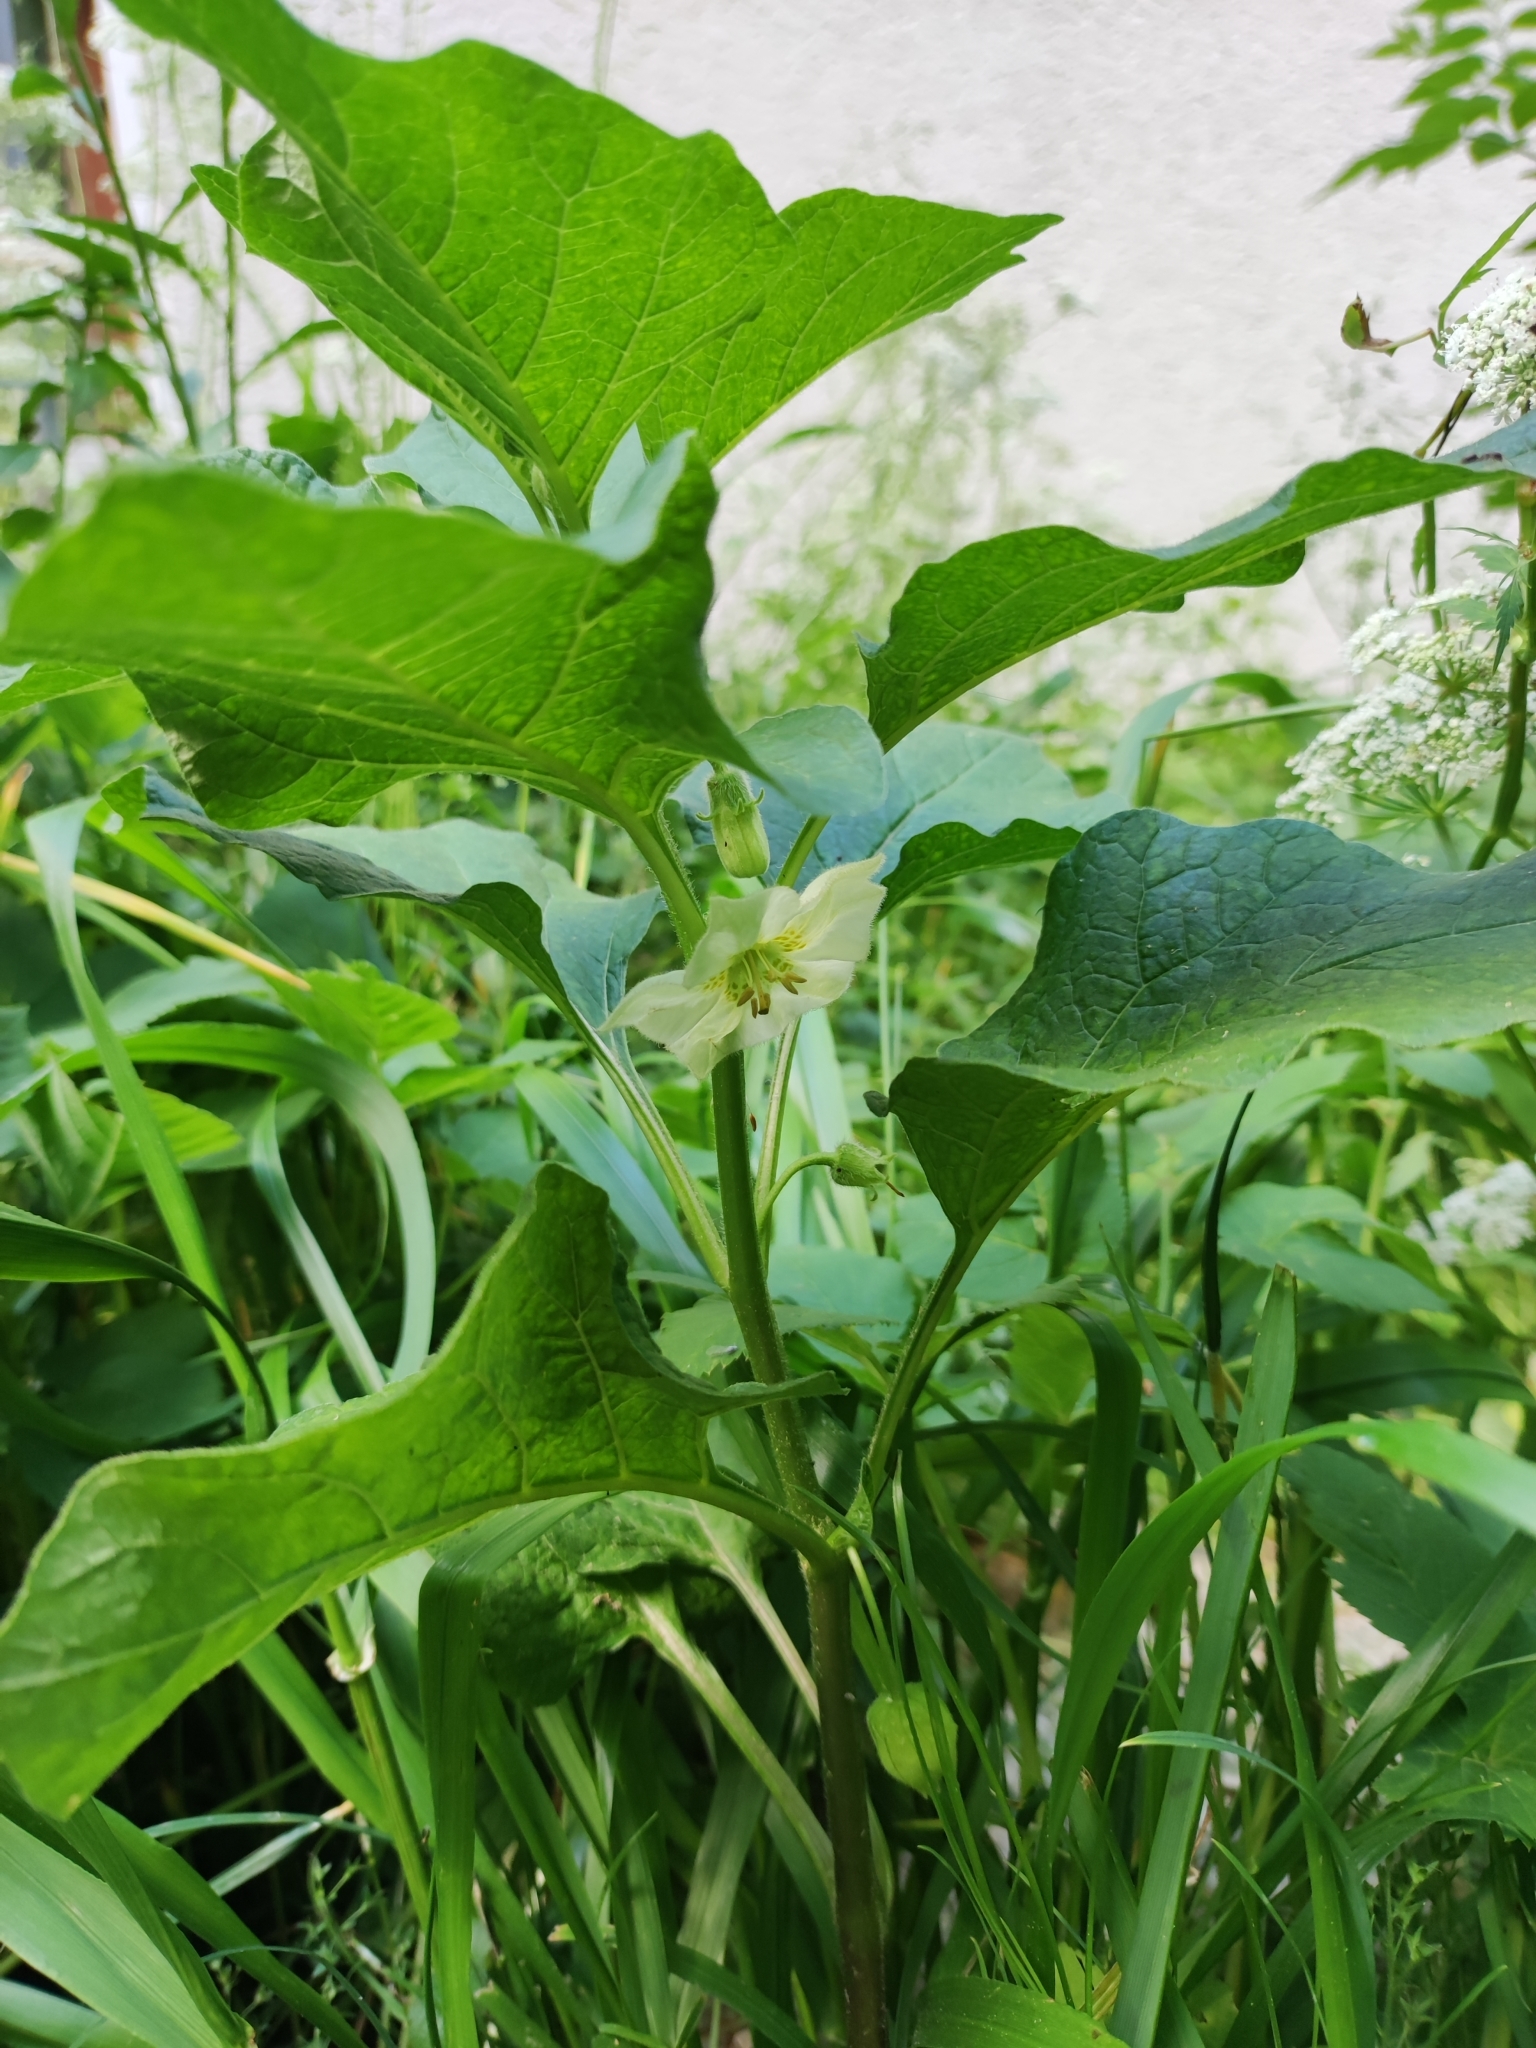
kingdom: Plantae
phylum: Tracheophyta
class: Magnoliopsida
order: Solanales
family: Solanaceae
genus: Alkekengi
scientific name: Alkekengi officinarum
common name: Japanese-lantern
